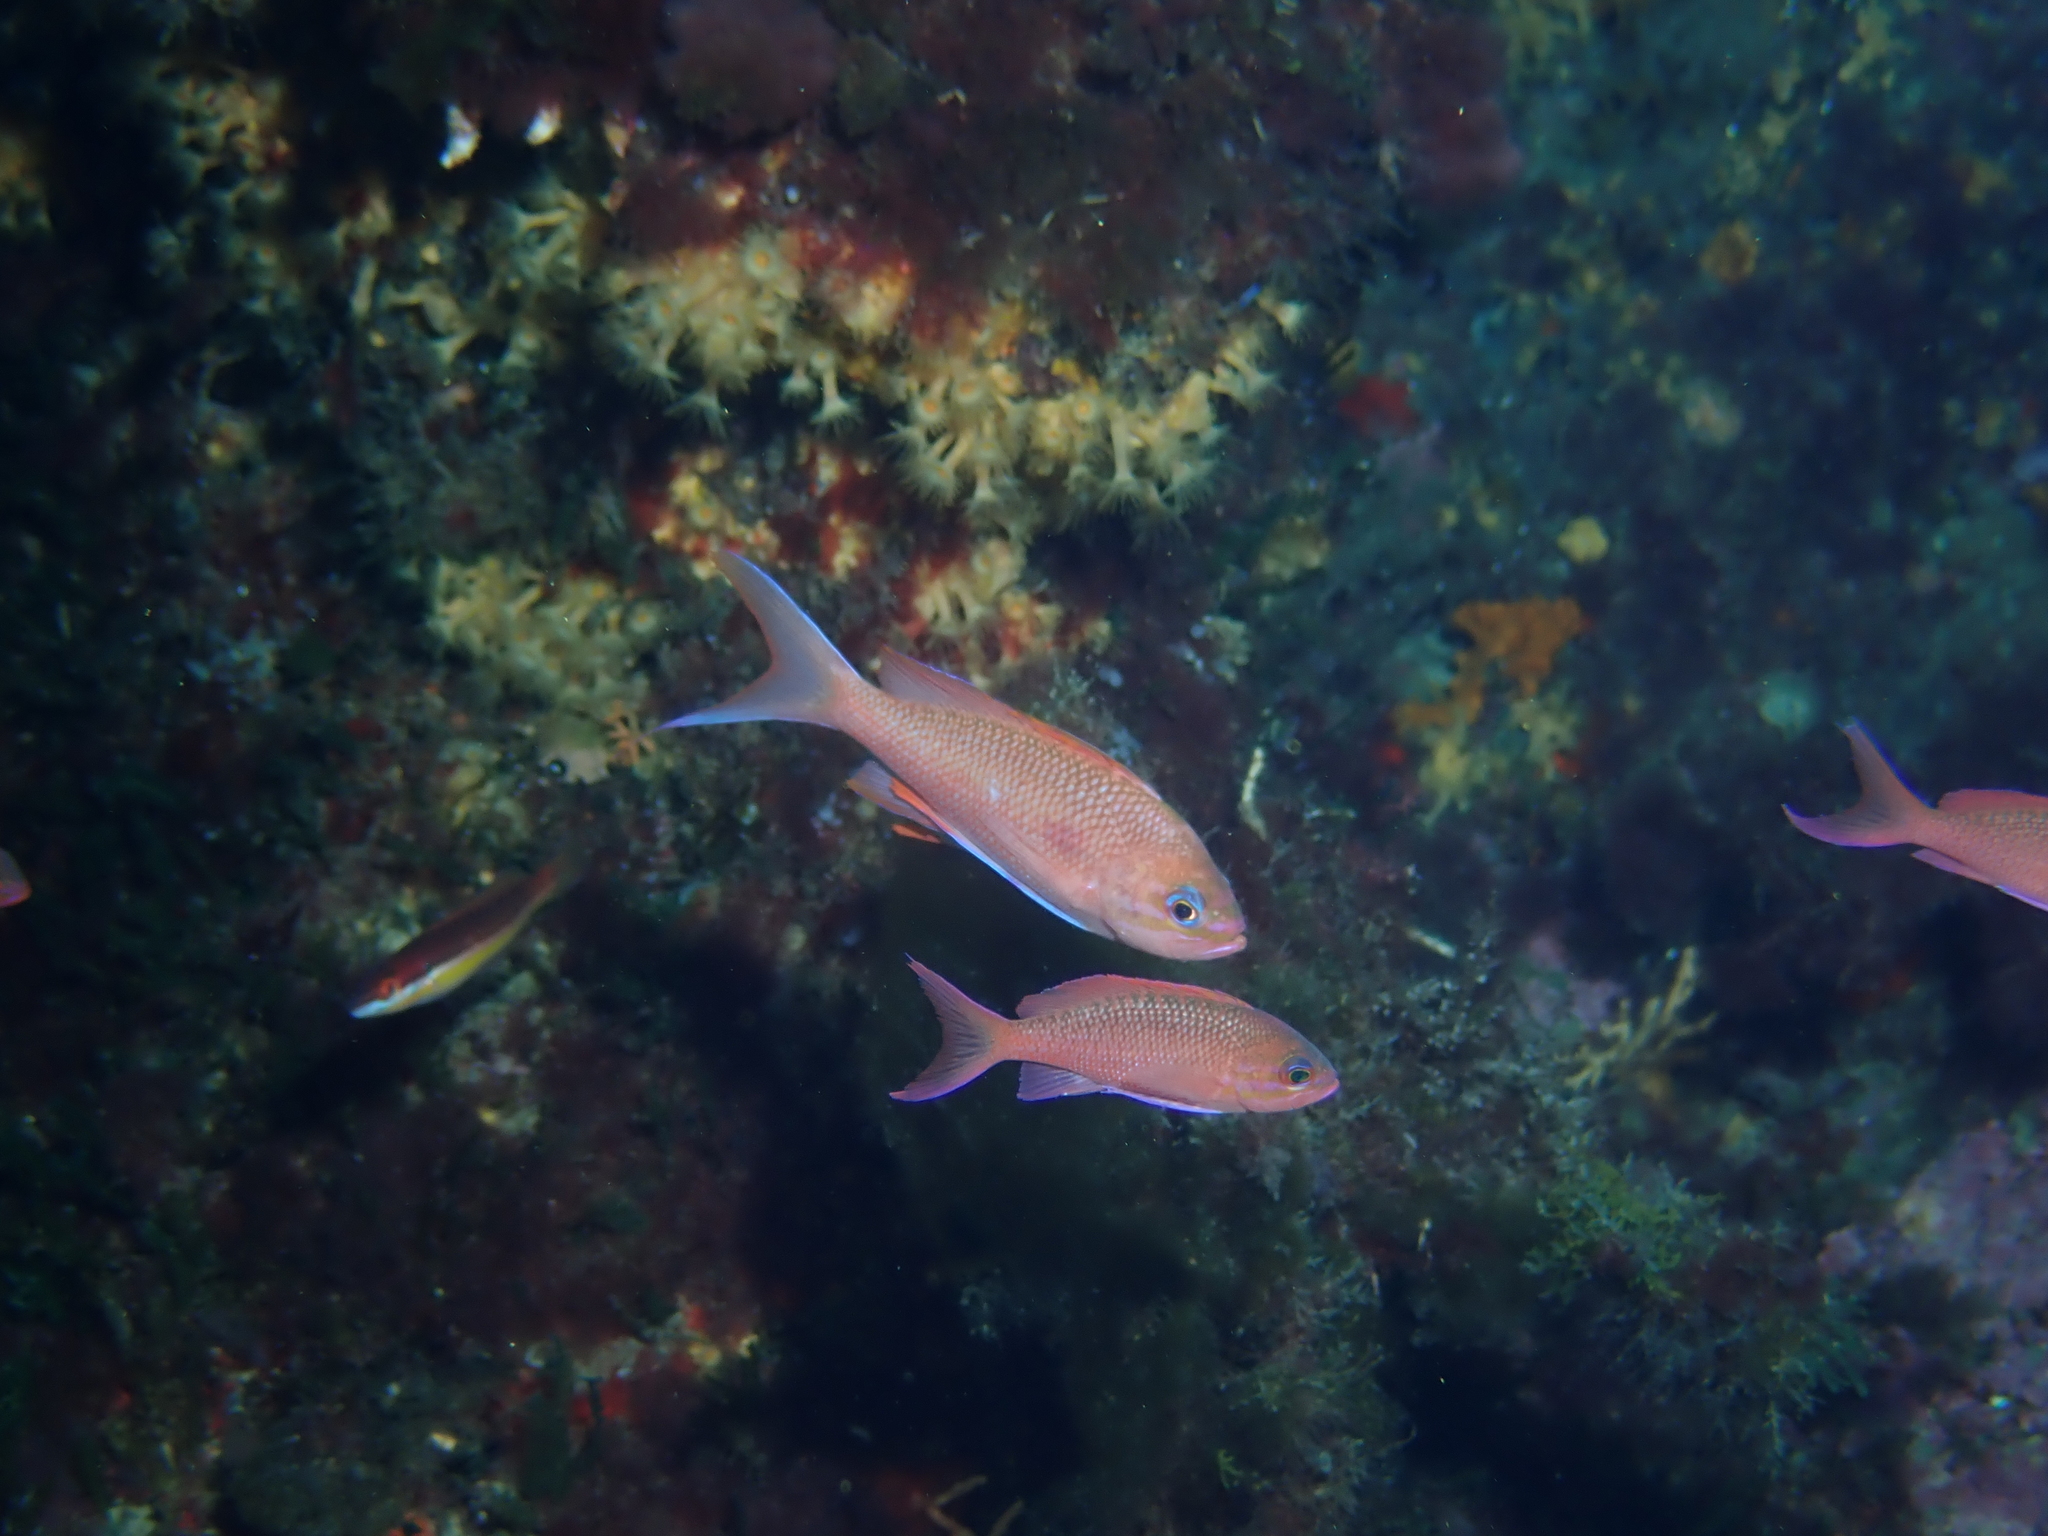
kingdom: Animalia
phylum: Chordata
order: Perciformes
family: Serranidae
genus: Anthias
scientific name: Anthias anthias
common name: Swallowtail seaperch
